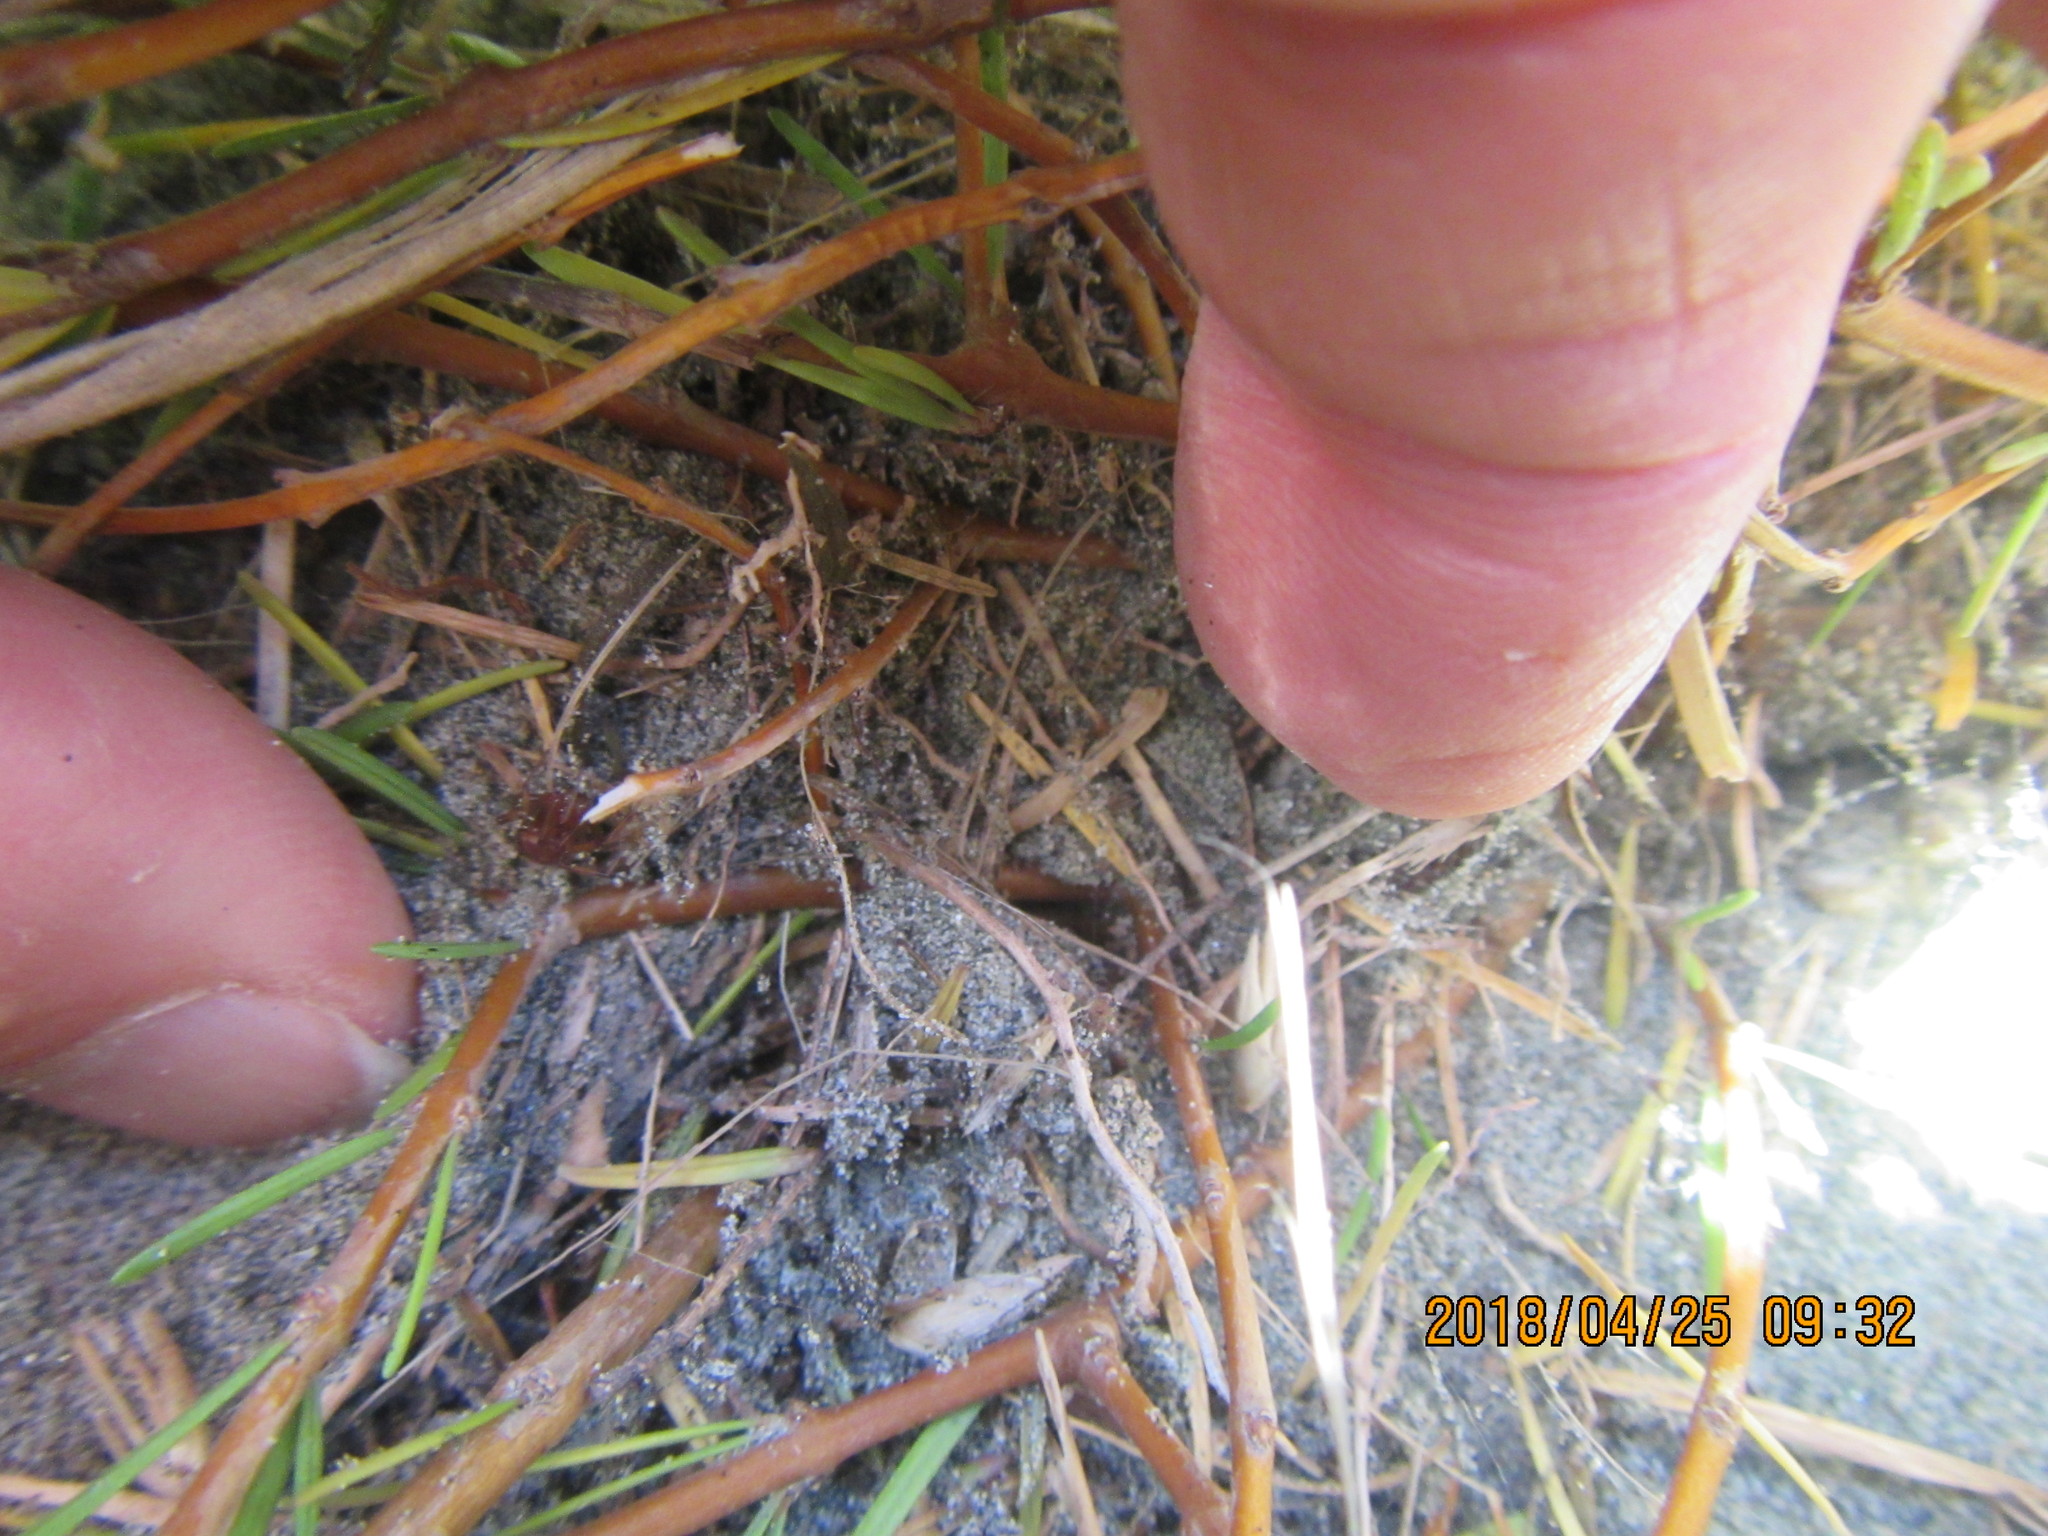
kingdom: Plantae
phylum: Tracheophyta
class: Magnoliopsida
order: Gentianales
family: Rubiaceae
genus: Coprosma
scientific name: Coprosma acerosa
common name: Sand coprosma
